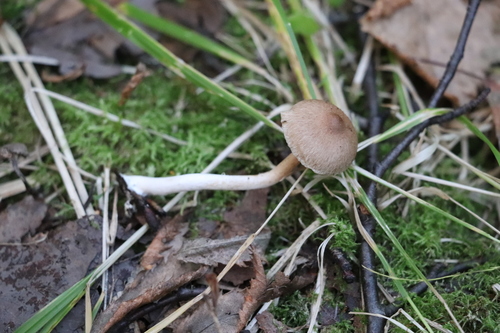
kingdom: Fungi
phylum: Basidiomycota
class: Agaricomycetes
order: Agaricales
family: Inocybaceae
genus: Inocybe
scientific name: Inocybe
